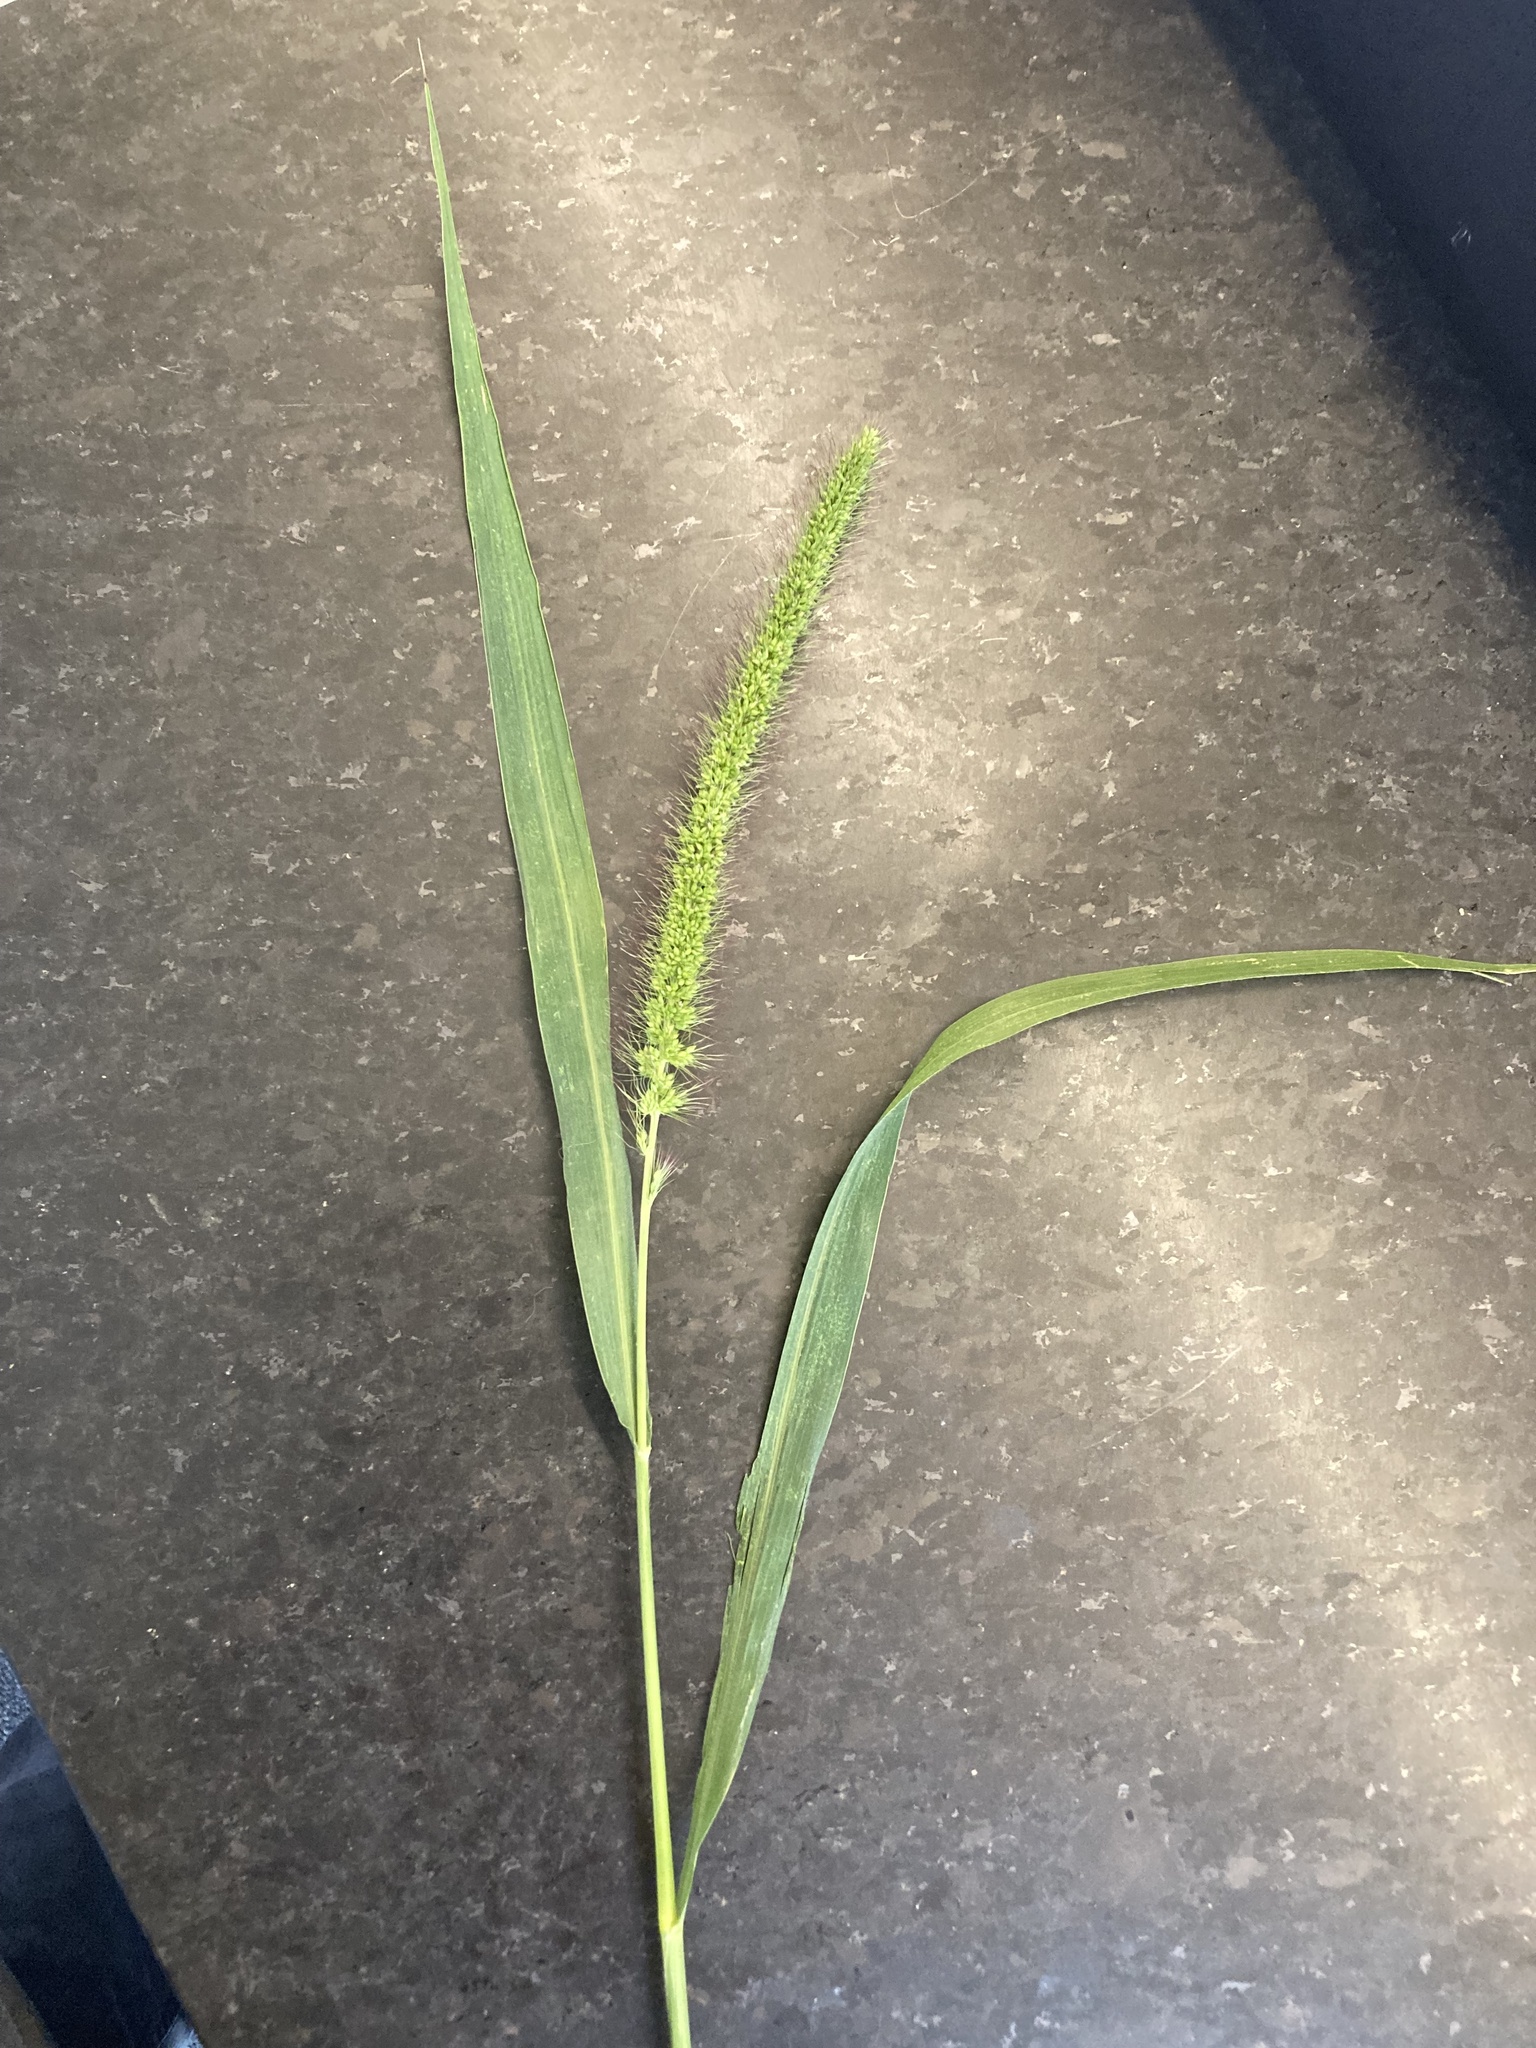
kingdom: Plantae
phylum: Tracheophyta
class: Liliopsida
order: Poales
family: Poaceae
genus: Setaria
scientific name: Setaria faberi
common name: Nodding bristle-grass
